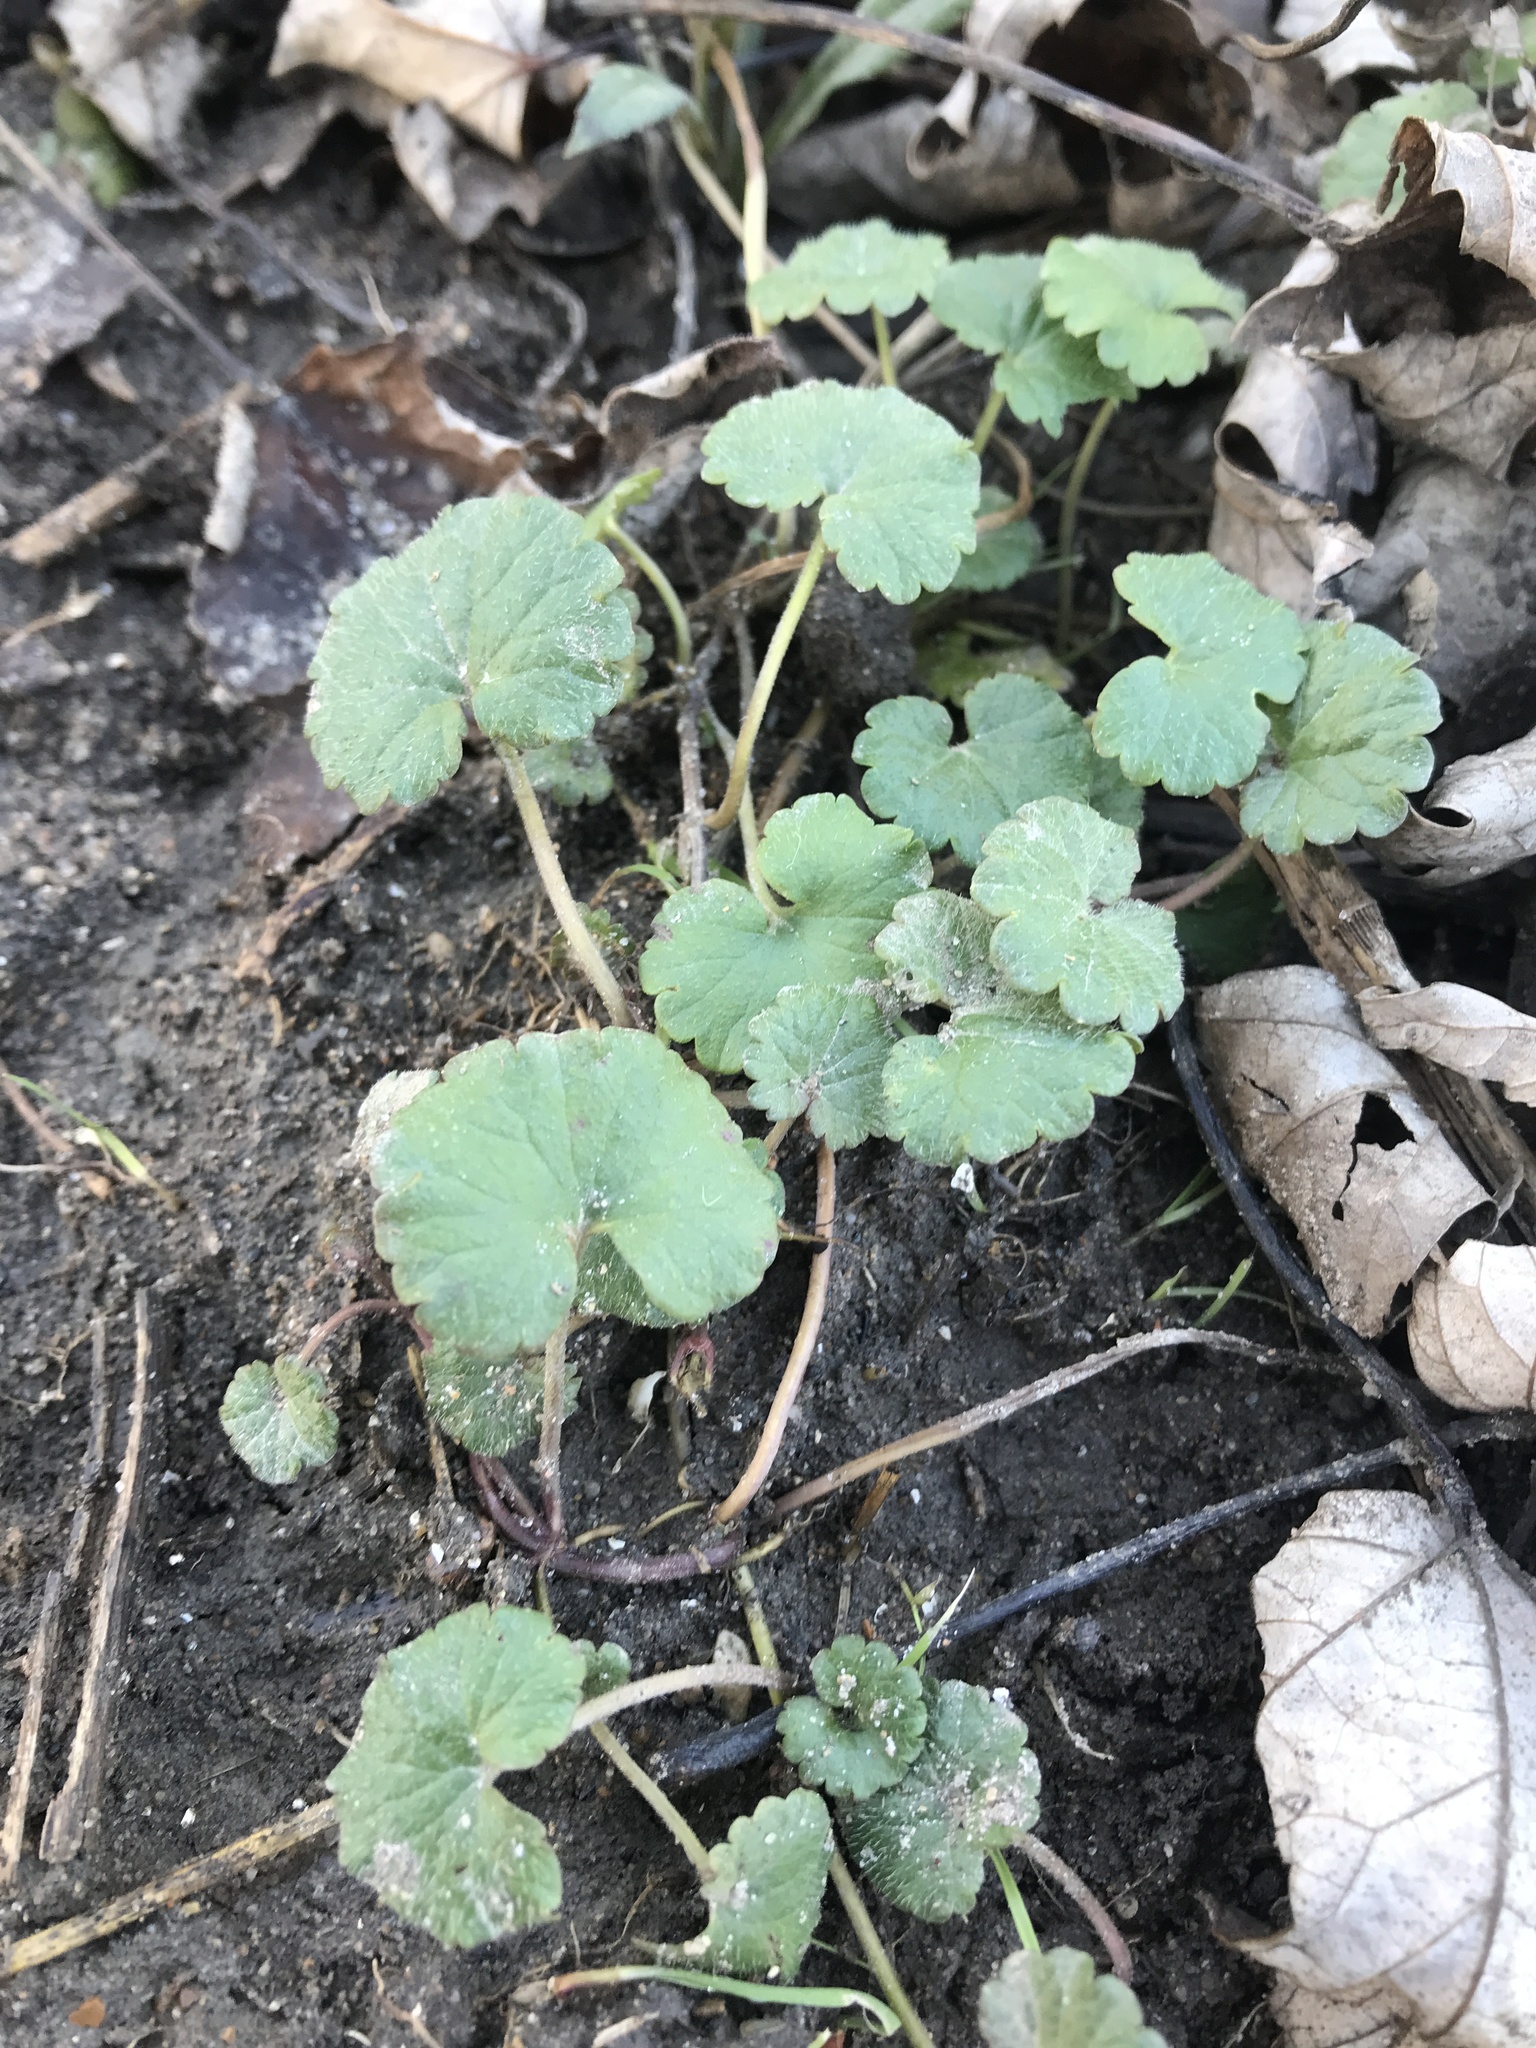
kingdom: Plantae
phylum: Tracheophyta
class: Magnoliopsida
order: Lamiales
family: Lamiaceae
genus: Glechoma
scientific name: Glechoma hederacea
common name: Ground ivy
